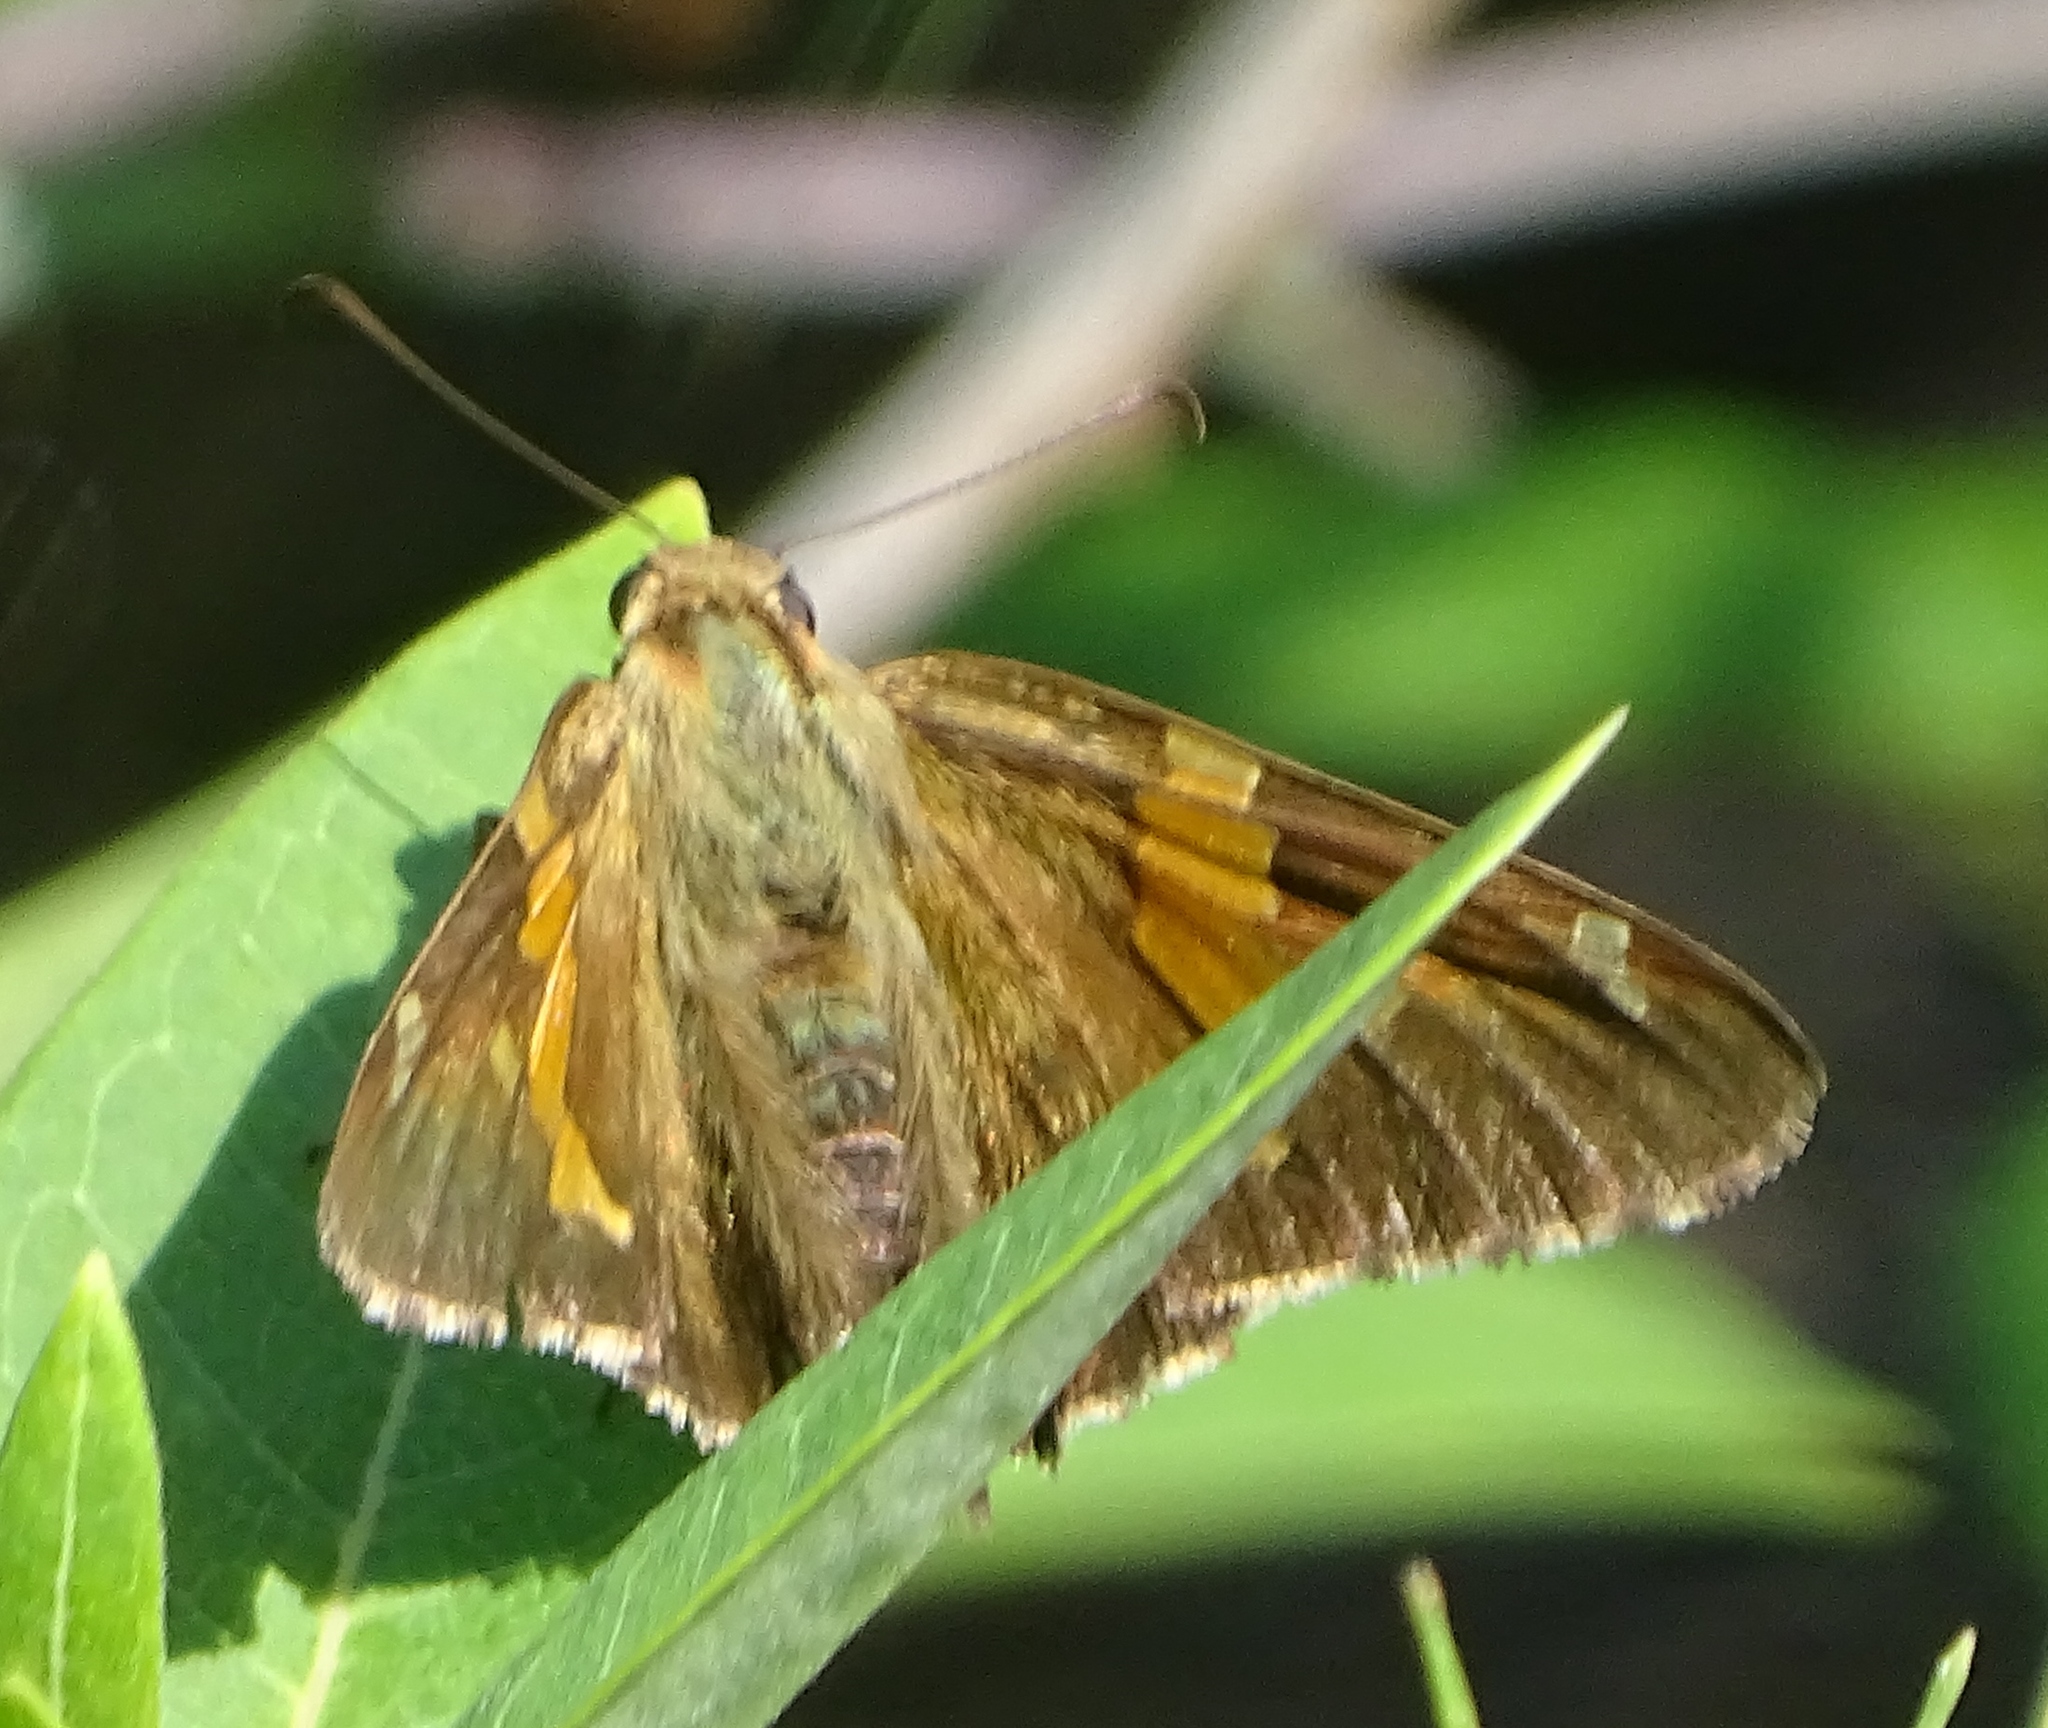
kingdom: Animalia
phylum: Arthropoda
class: Insecta
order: Lepidoptera
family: Hesperiidae
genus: Epargyreus
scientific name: Epargyreus clarus
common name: Silver-spotted skipper
